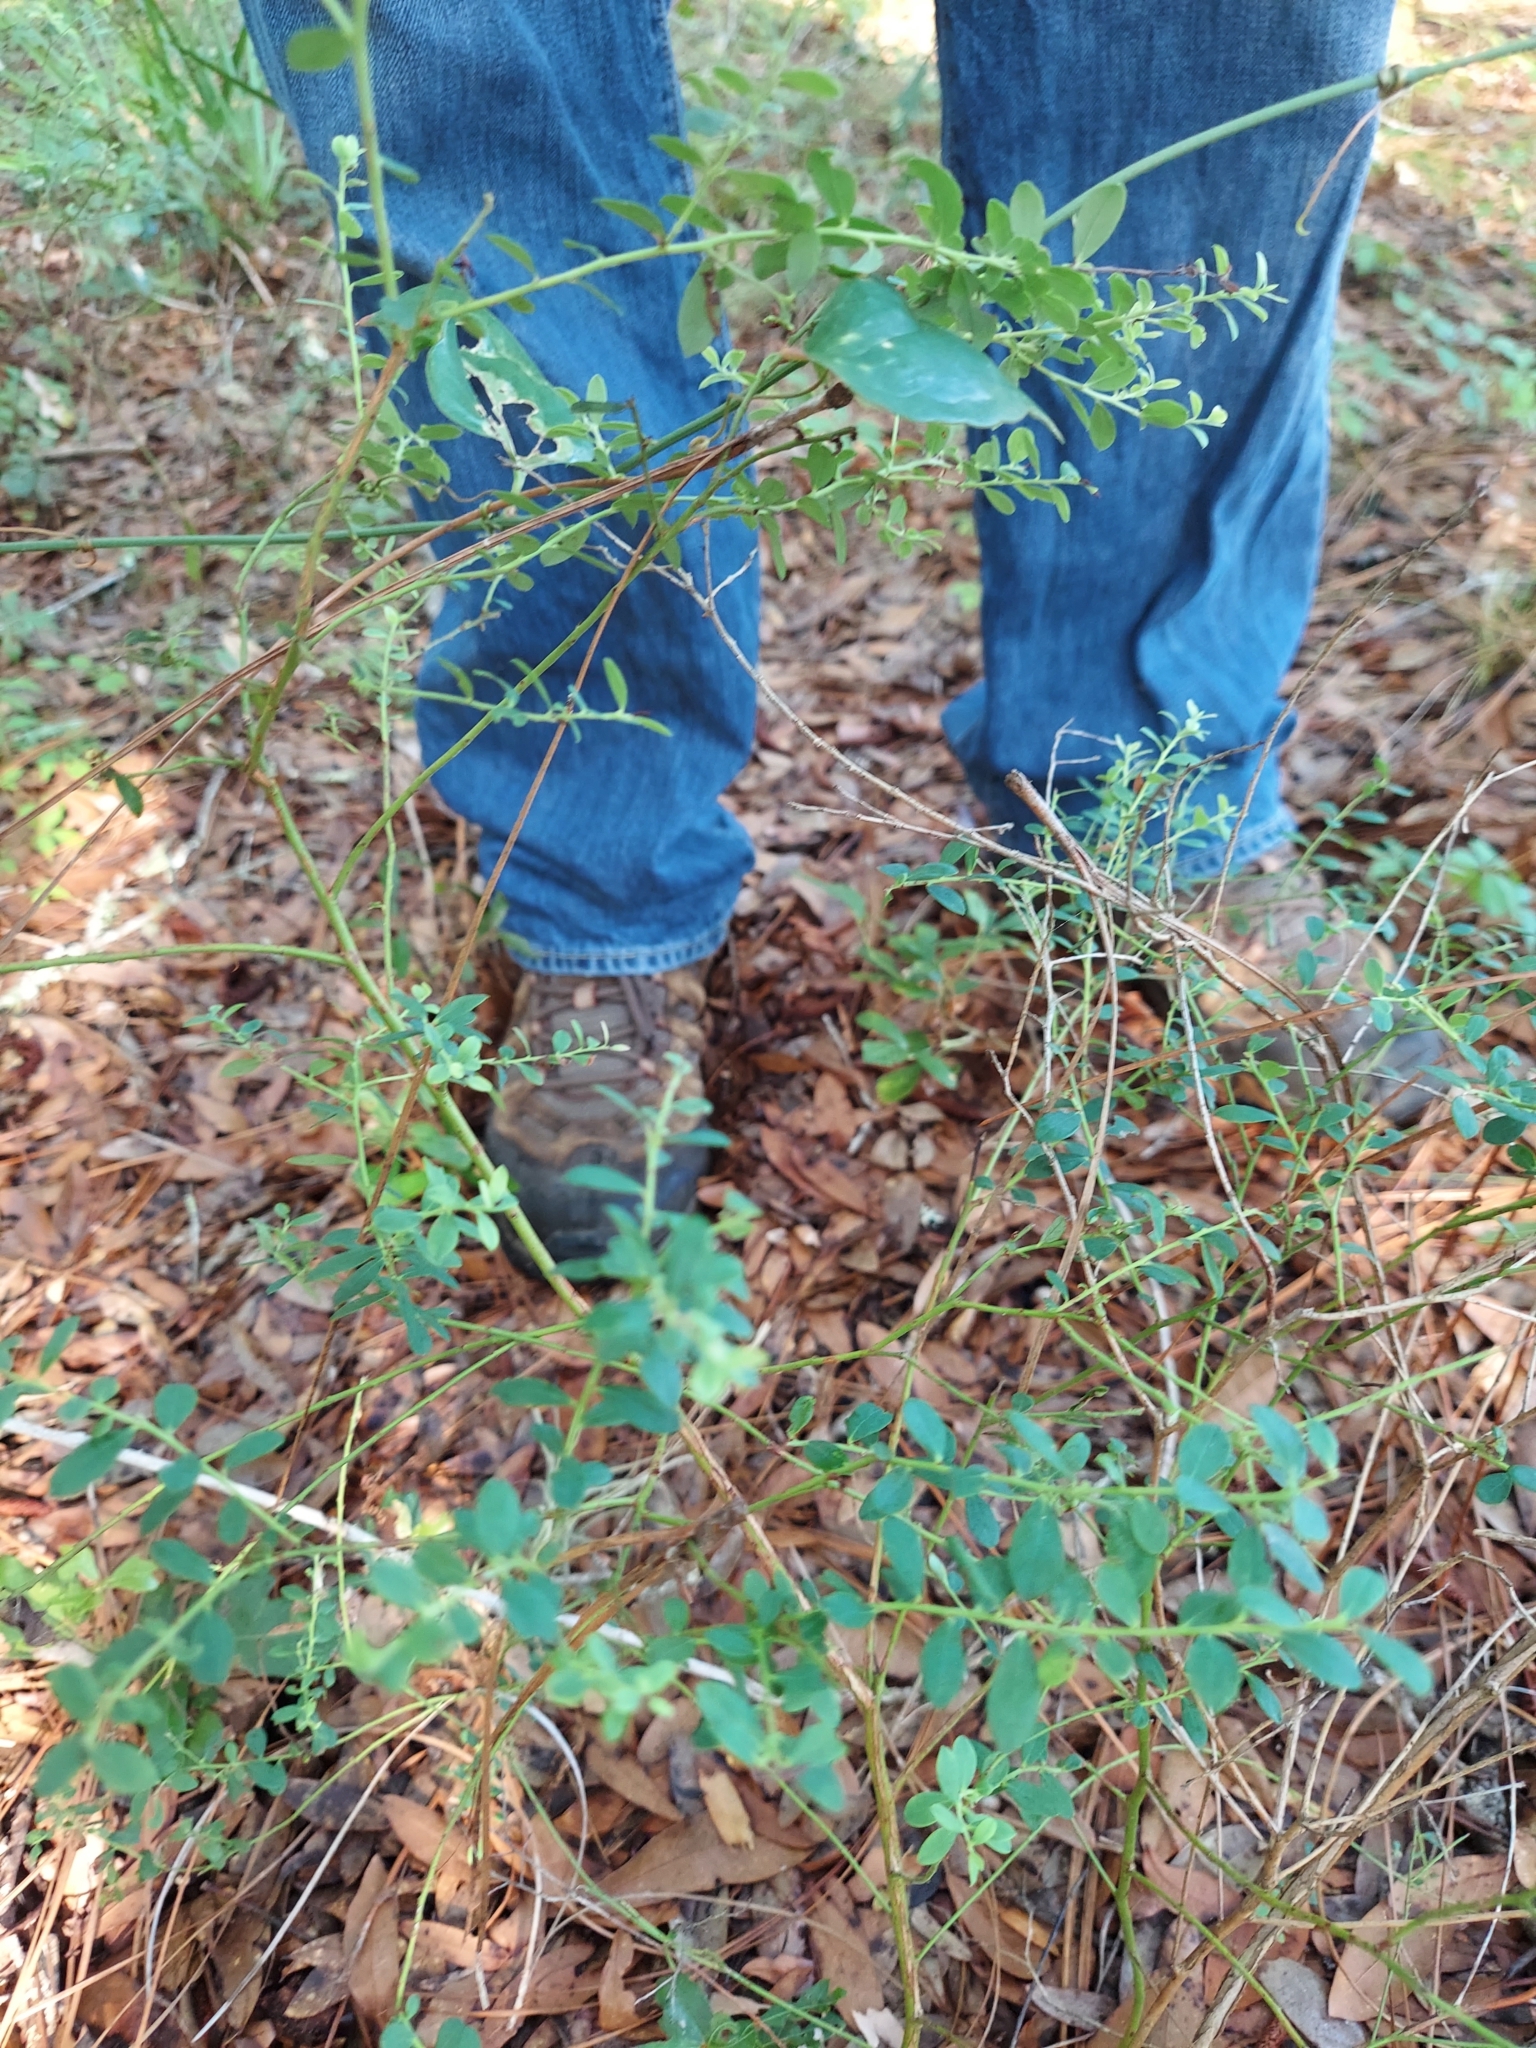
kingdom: Plantae
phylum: Tracheophyta
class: Magnoliopsida
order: Ericales
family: Ericaceae
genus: Vaccinium
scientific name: Vaccinium darrowii
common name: Darrow's blueberry
